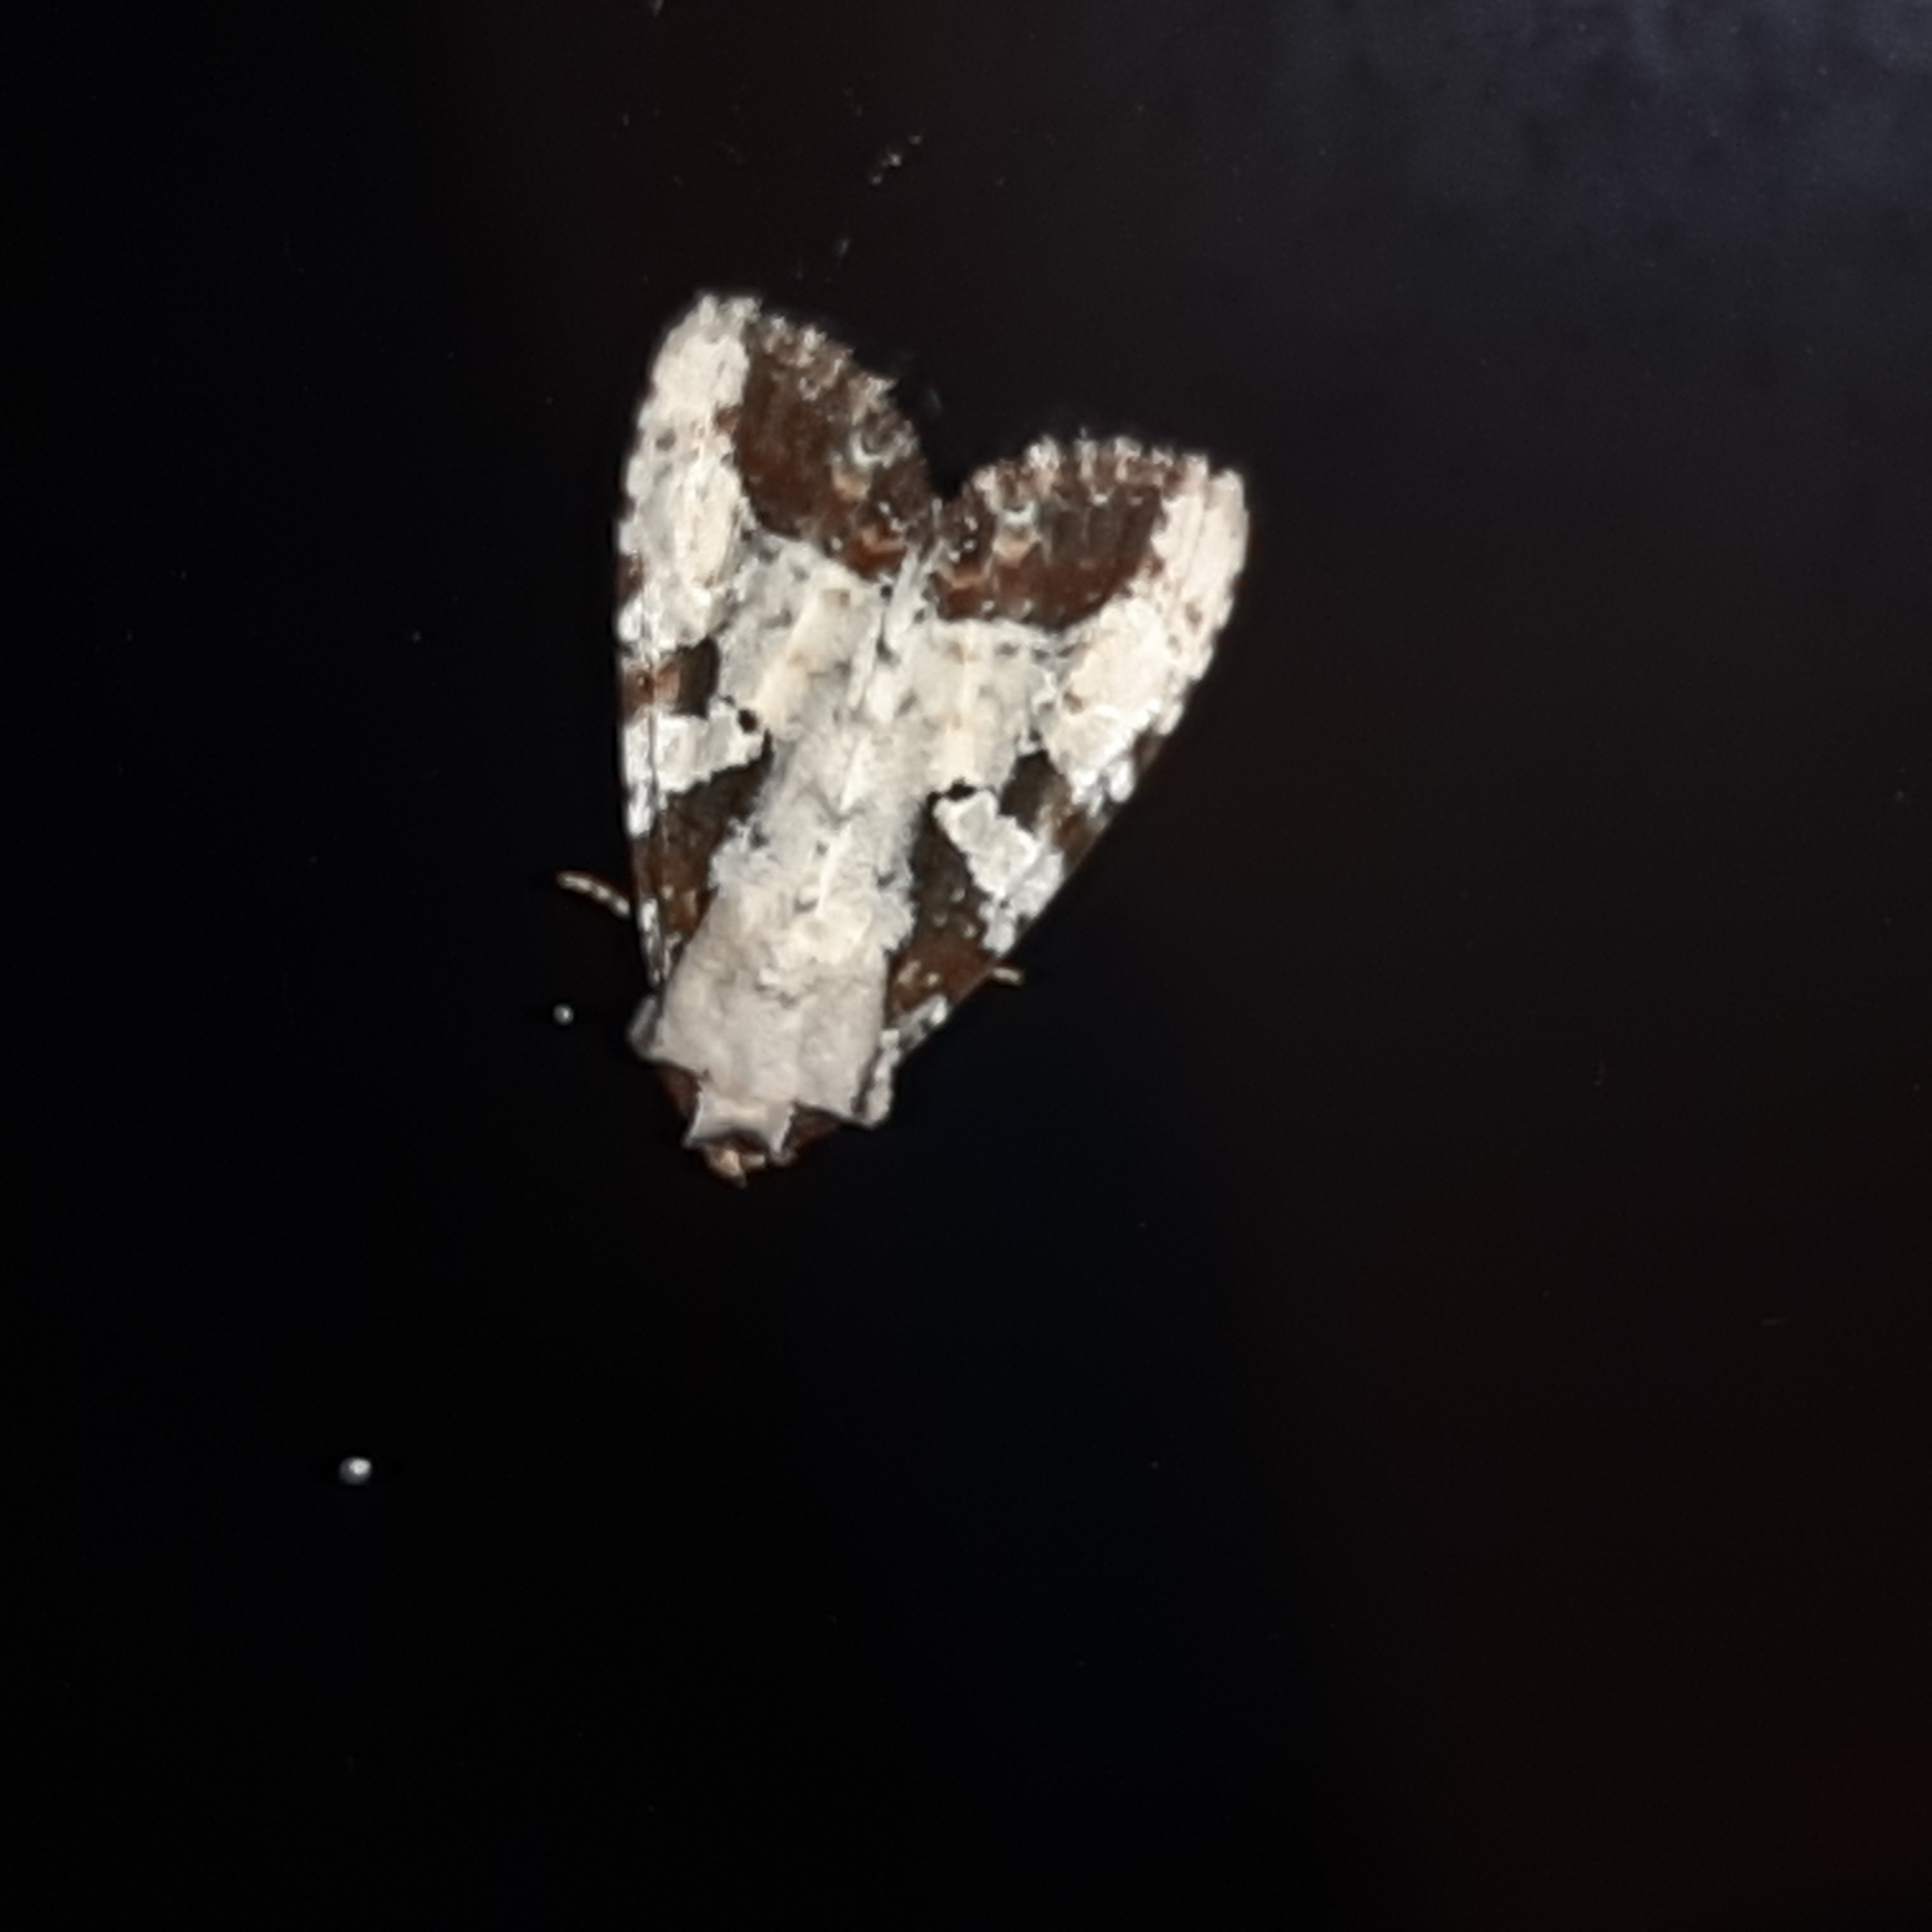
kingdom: Animalia
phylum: Arthropoda
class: Insecta
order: Lepidoptera
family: Noctuidae
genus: Condica
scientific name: Condica hippia
